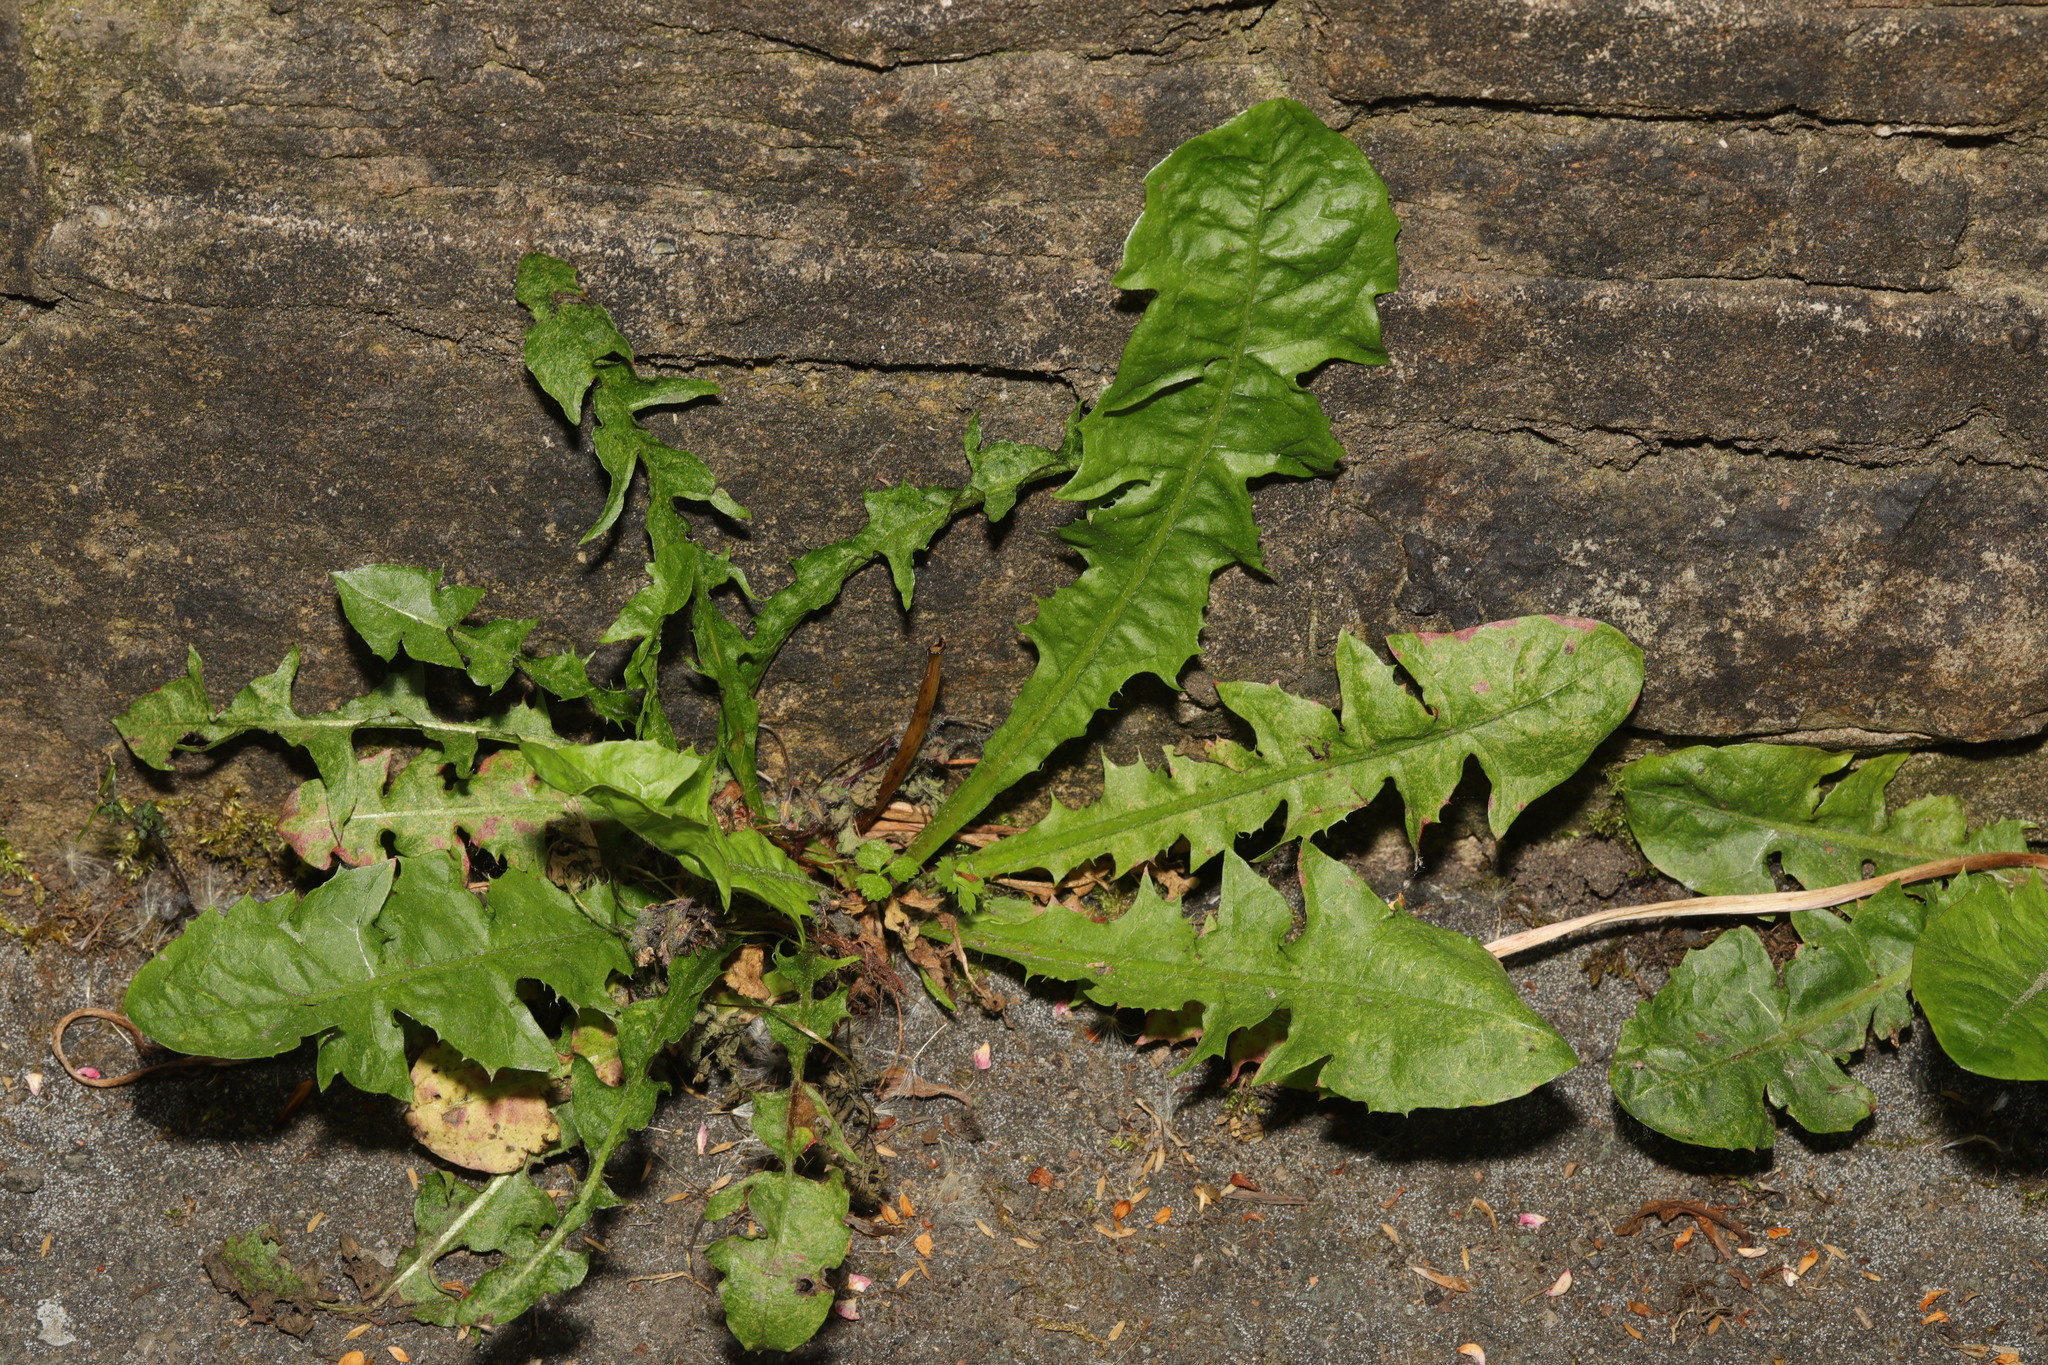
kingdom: Plantae
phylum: Tracheophyta
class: Magnoliopsida
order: Asterales
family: Asteraceae
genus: Taraxacum
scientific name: Taraxacum officinale
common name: Common dandelion
